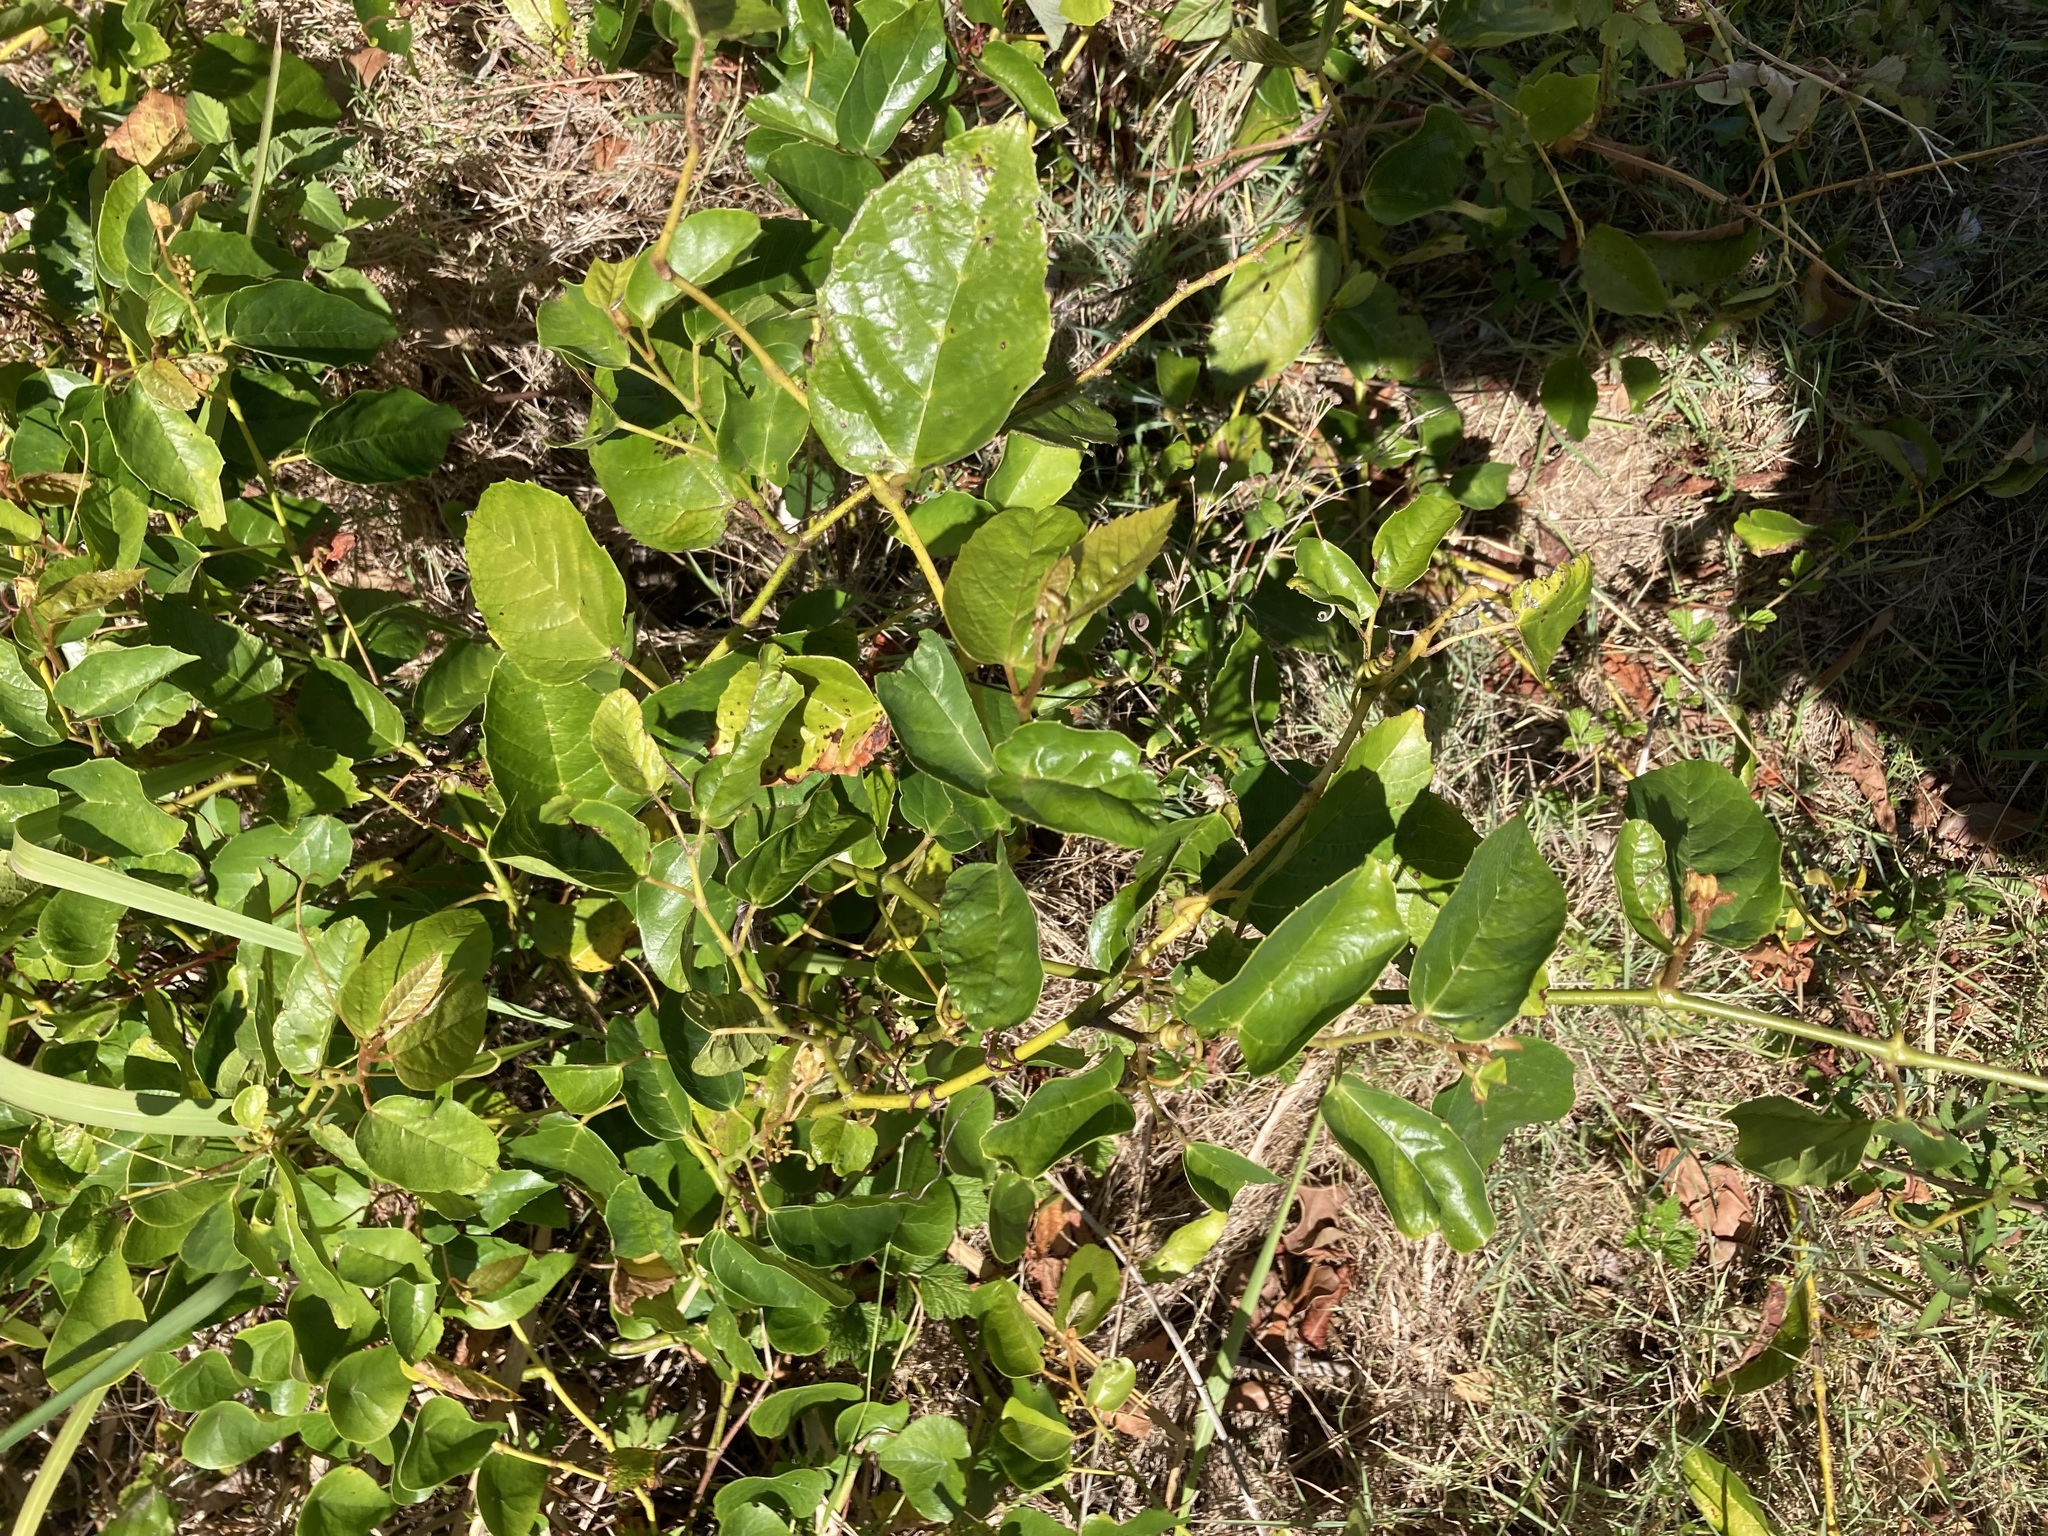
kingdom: Plantae
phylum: Tracheophyta
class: Magnoliopsida
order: Vitales
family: Vitaceae
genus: Cissus
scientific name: Cissus antarctica
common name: Kangaroo vine
